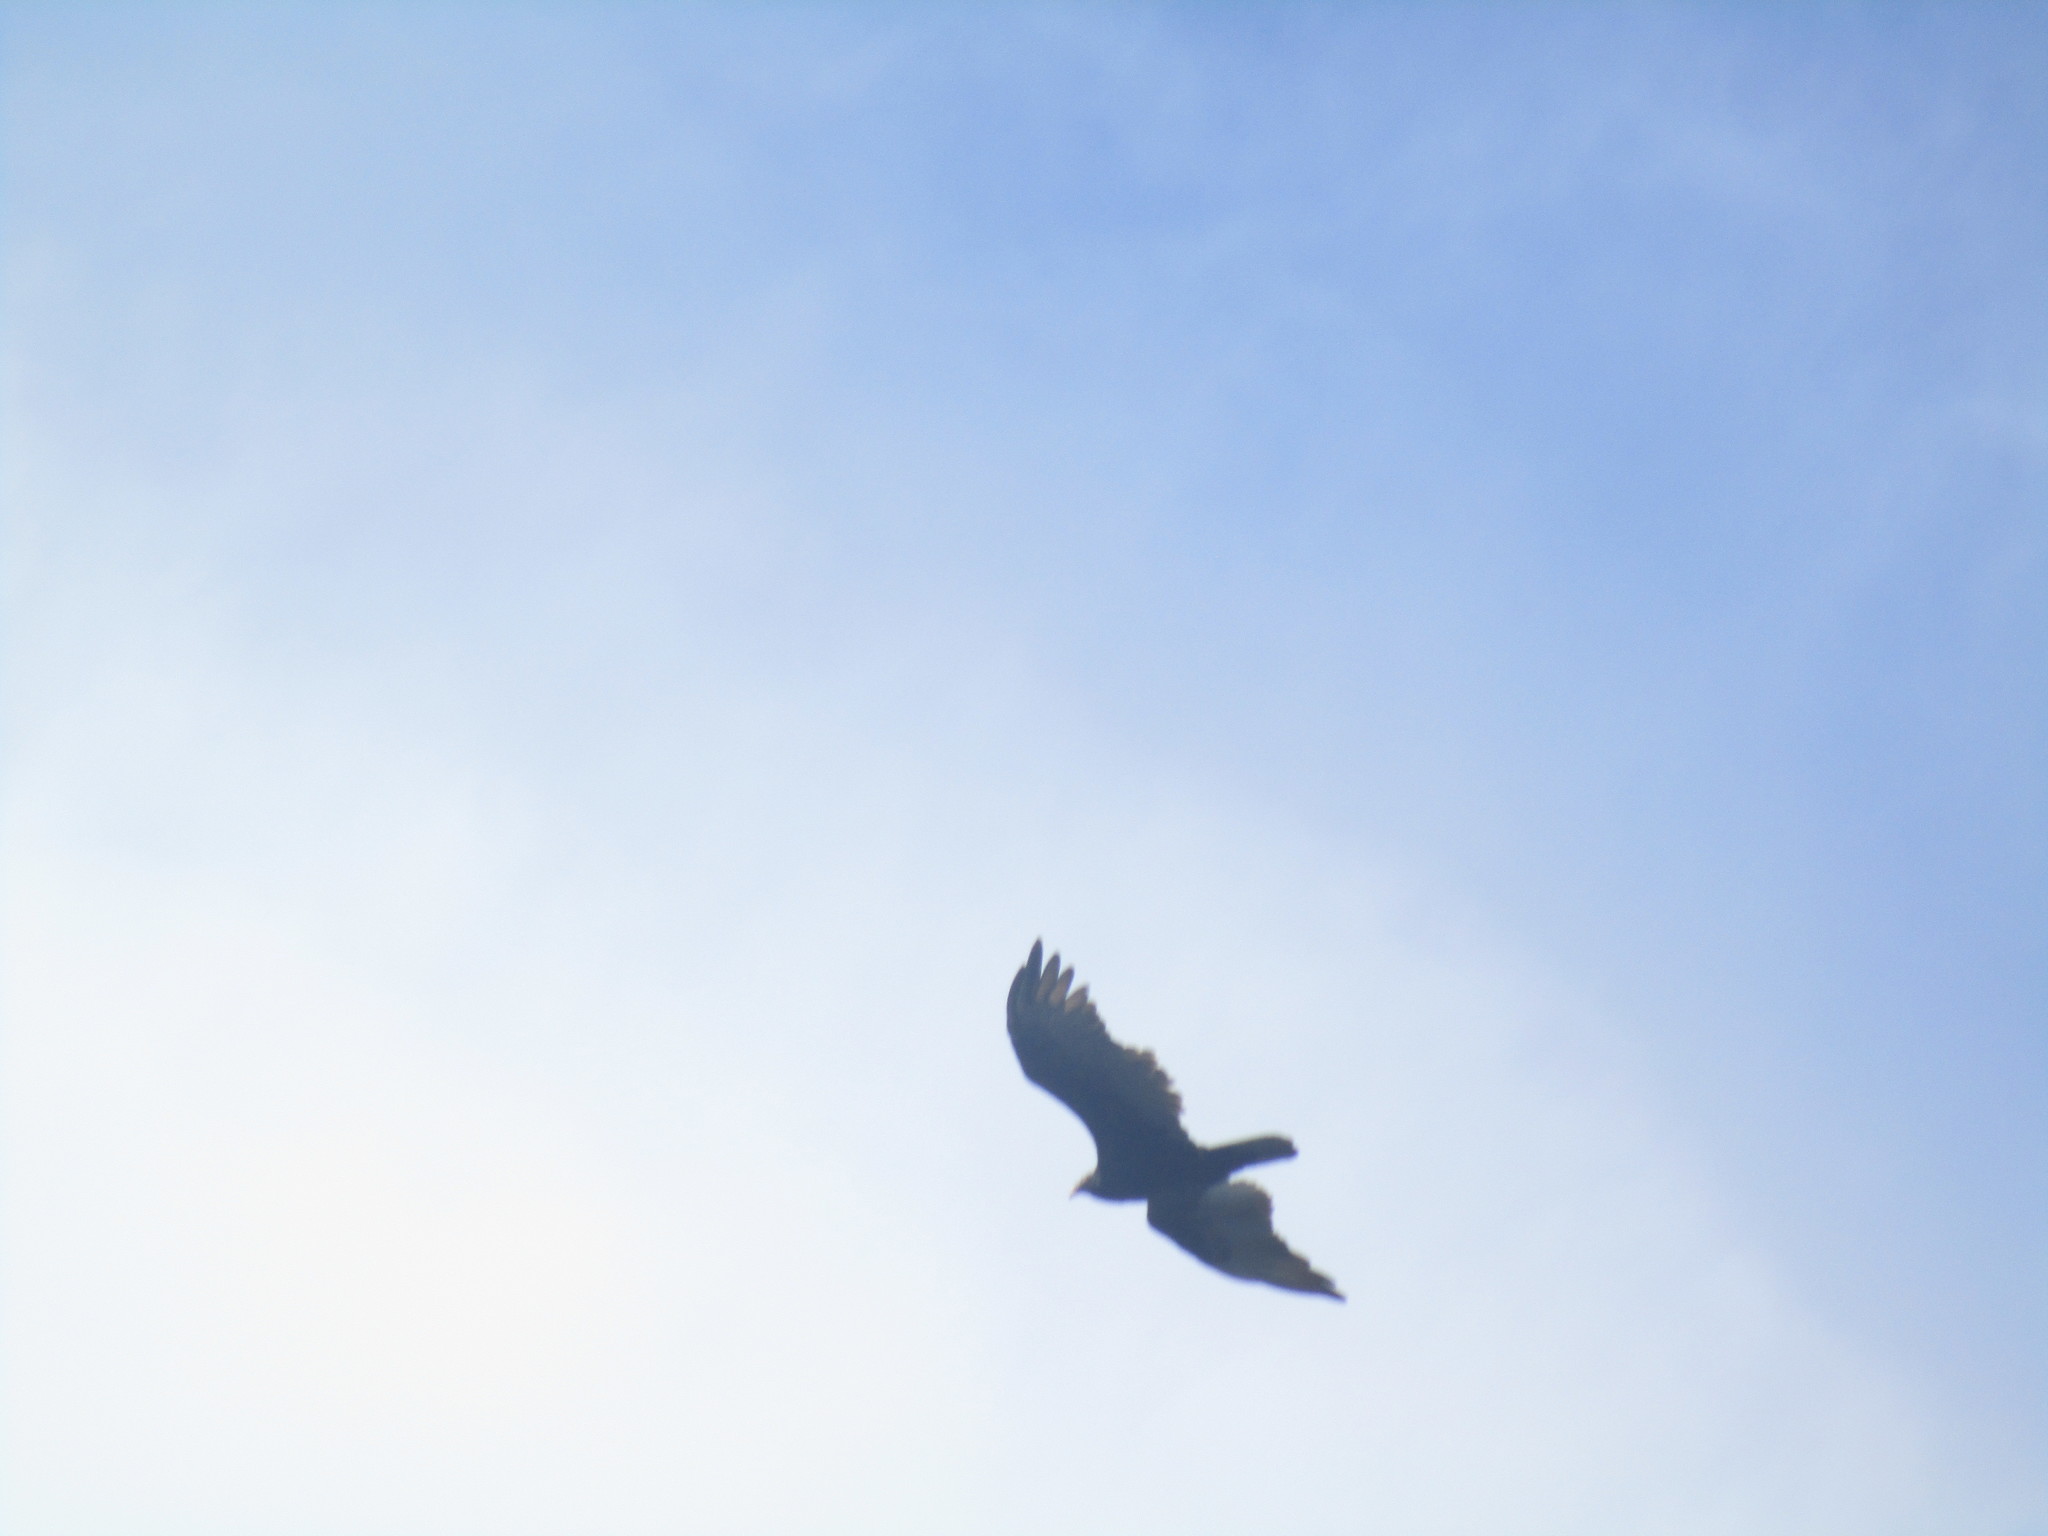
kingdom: Animalia
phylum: Chordata
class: Aves
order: Accipitriformes
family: Cathartidae
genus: Cathartes
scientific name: Cathartes aura
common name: Turkey vulture
